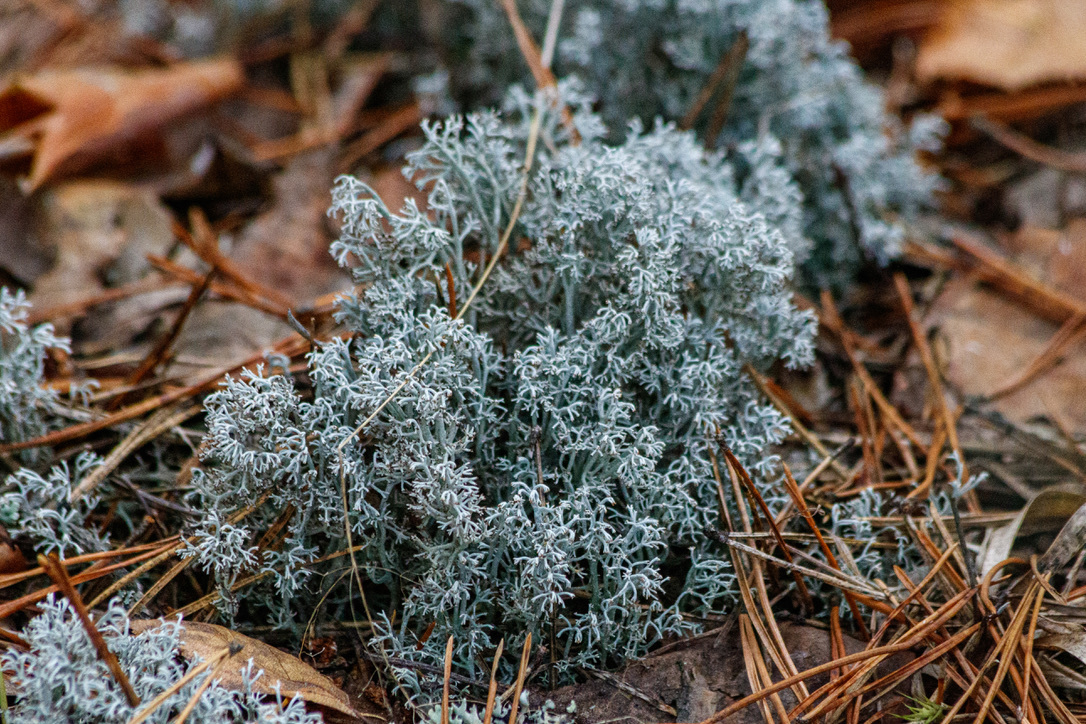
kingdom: Fungi
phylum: Ascomycota
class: Lecanoromycetes
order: Lecanorales
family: Cladoniaceae
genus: Cladonia
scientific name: Cladonia rangiferina
